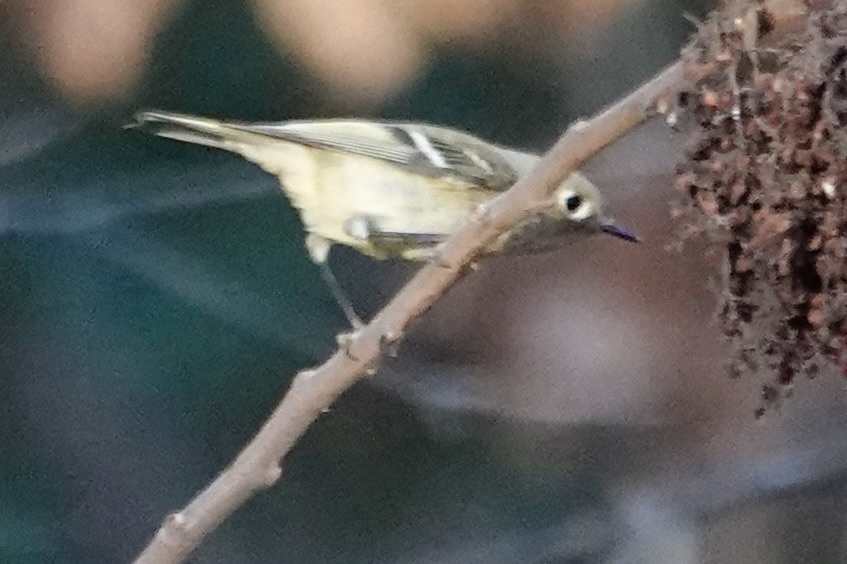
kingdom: Animalia
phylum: Chordata
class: Aves
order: Passeriformes
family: Regulidae
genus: Regulus
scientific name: Regulus calendula
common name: Ruby-crowned kinglet
